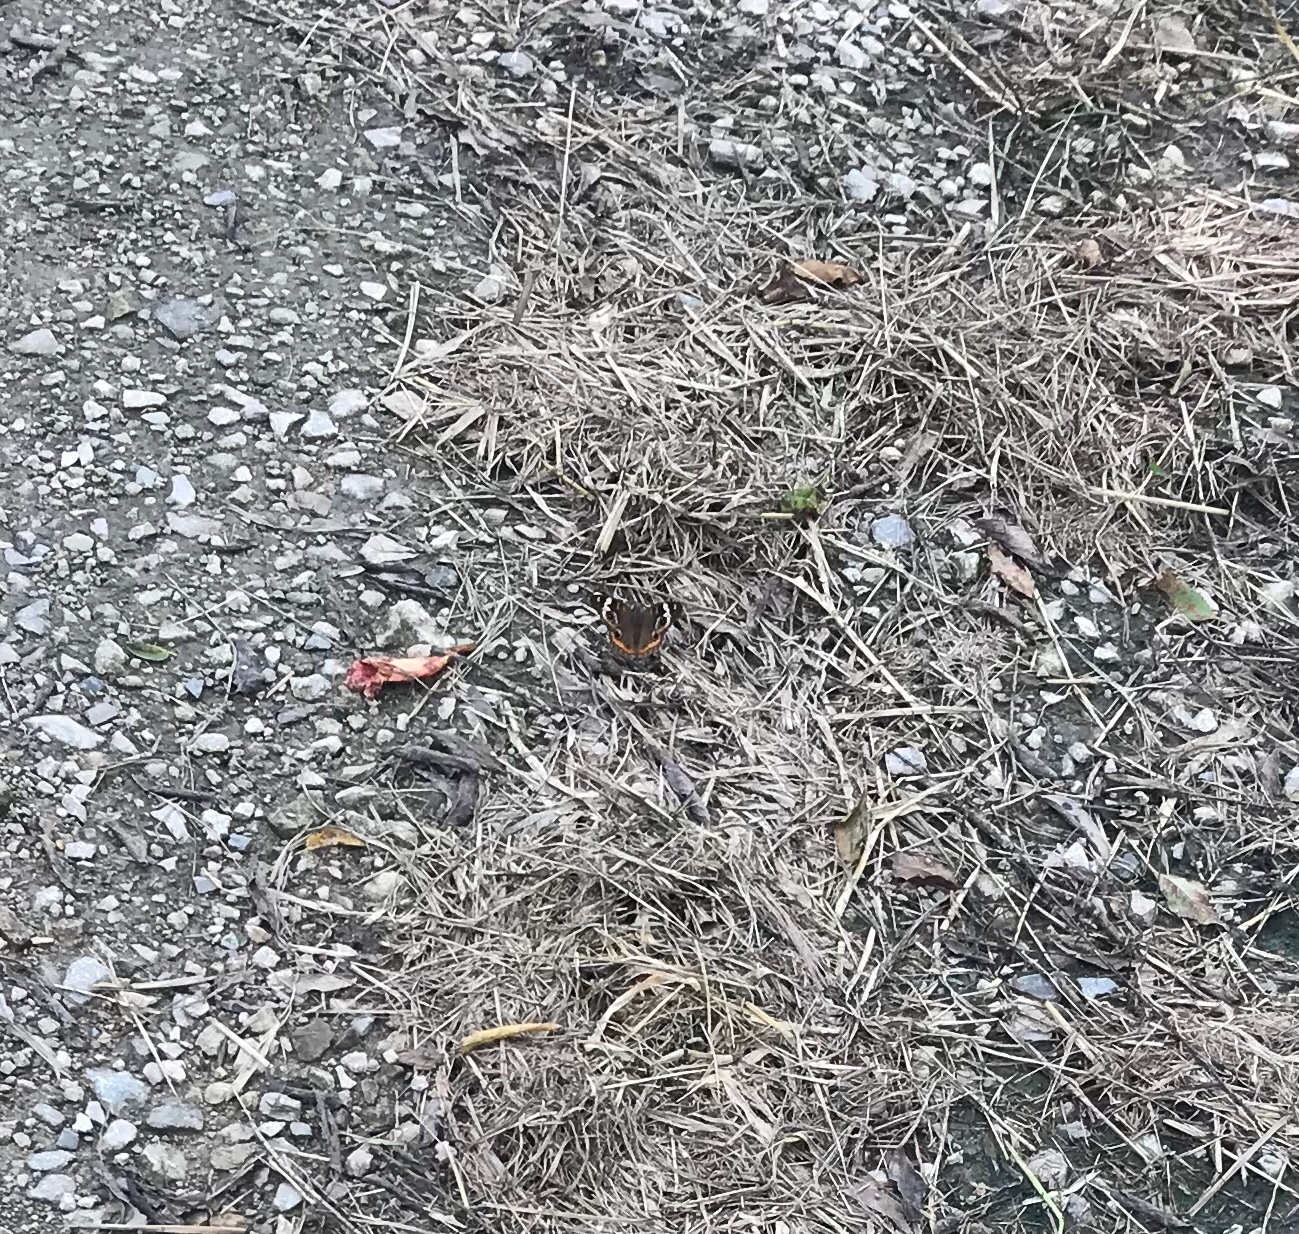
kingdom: Animalia
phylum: Arthropoda
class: Insecta
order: Lepidoptera
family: Nymphalidae
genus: Junonia
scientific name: Junonia coenia
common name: Common buckeye
